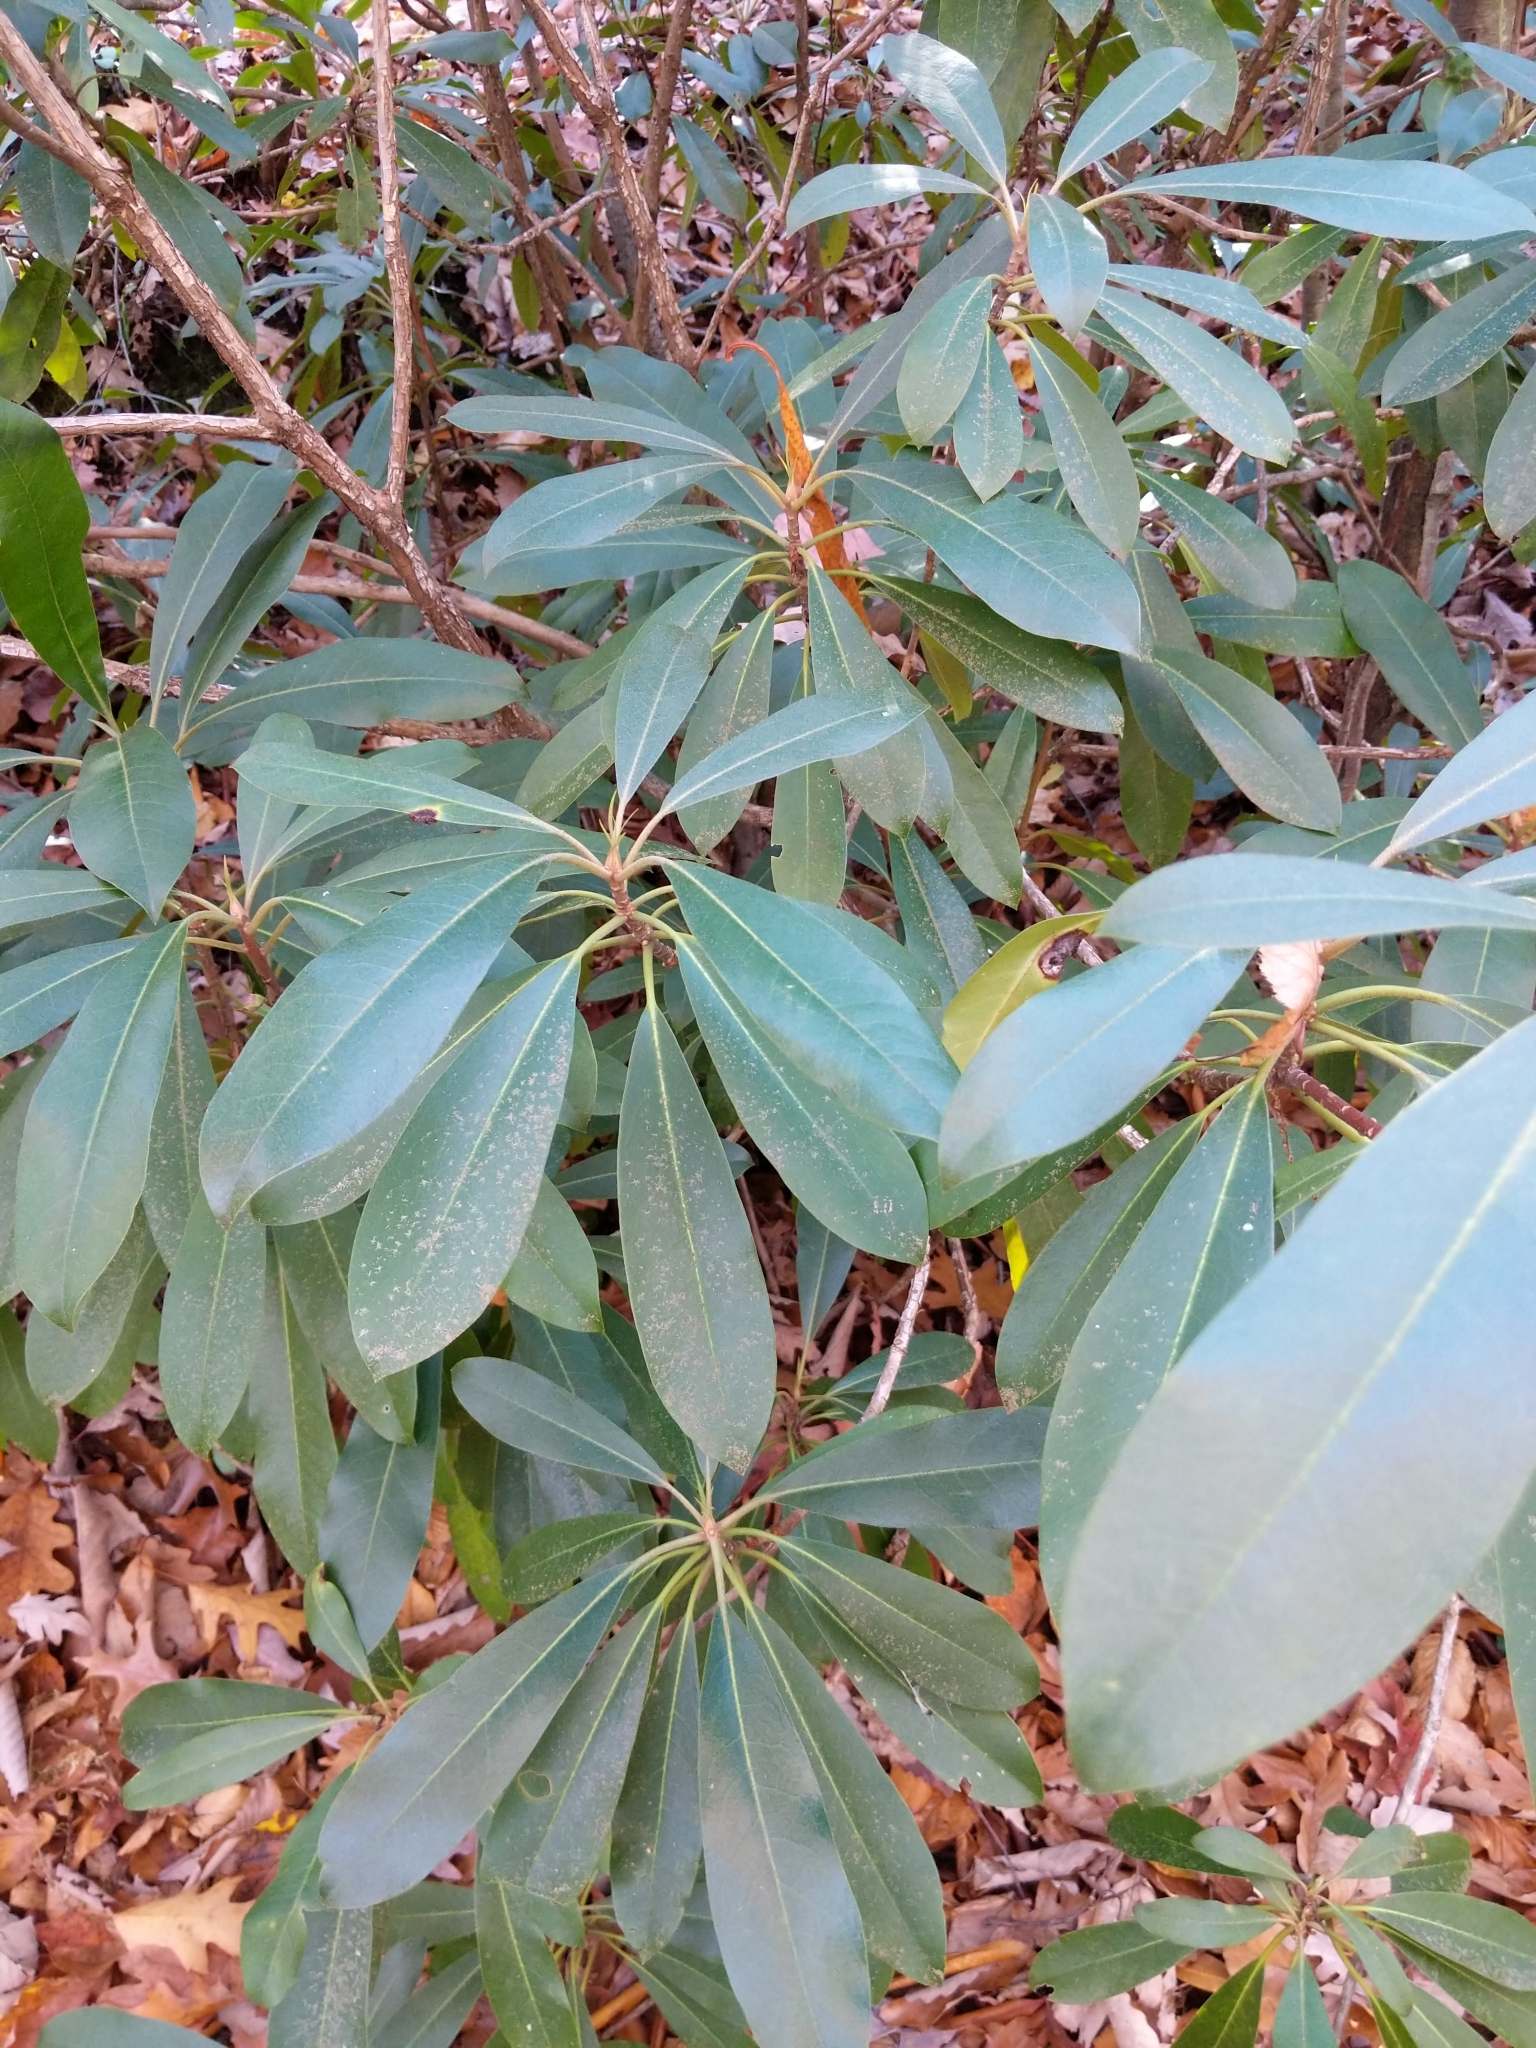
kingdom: Plantae
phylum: Tracheophyta
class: Magnoliopsida
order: Ericales
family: Ericaceae
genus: Rhododendron
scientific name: Rhododendron maximum
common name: Great rhododendron
